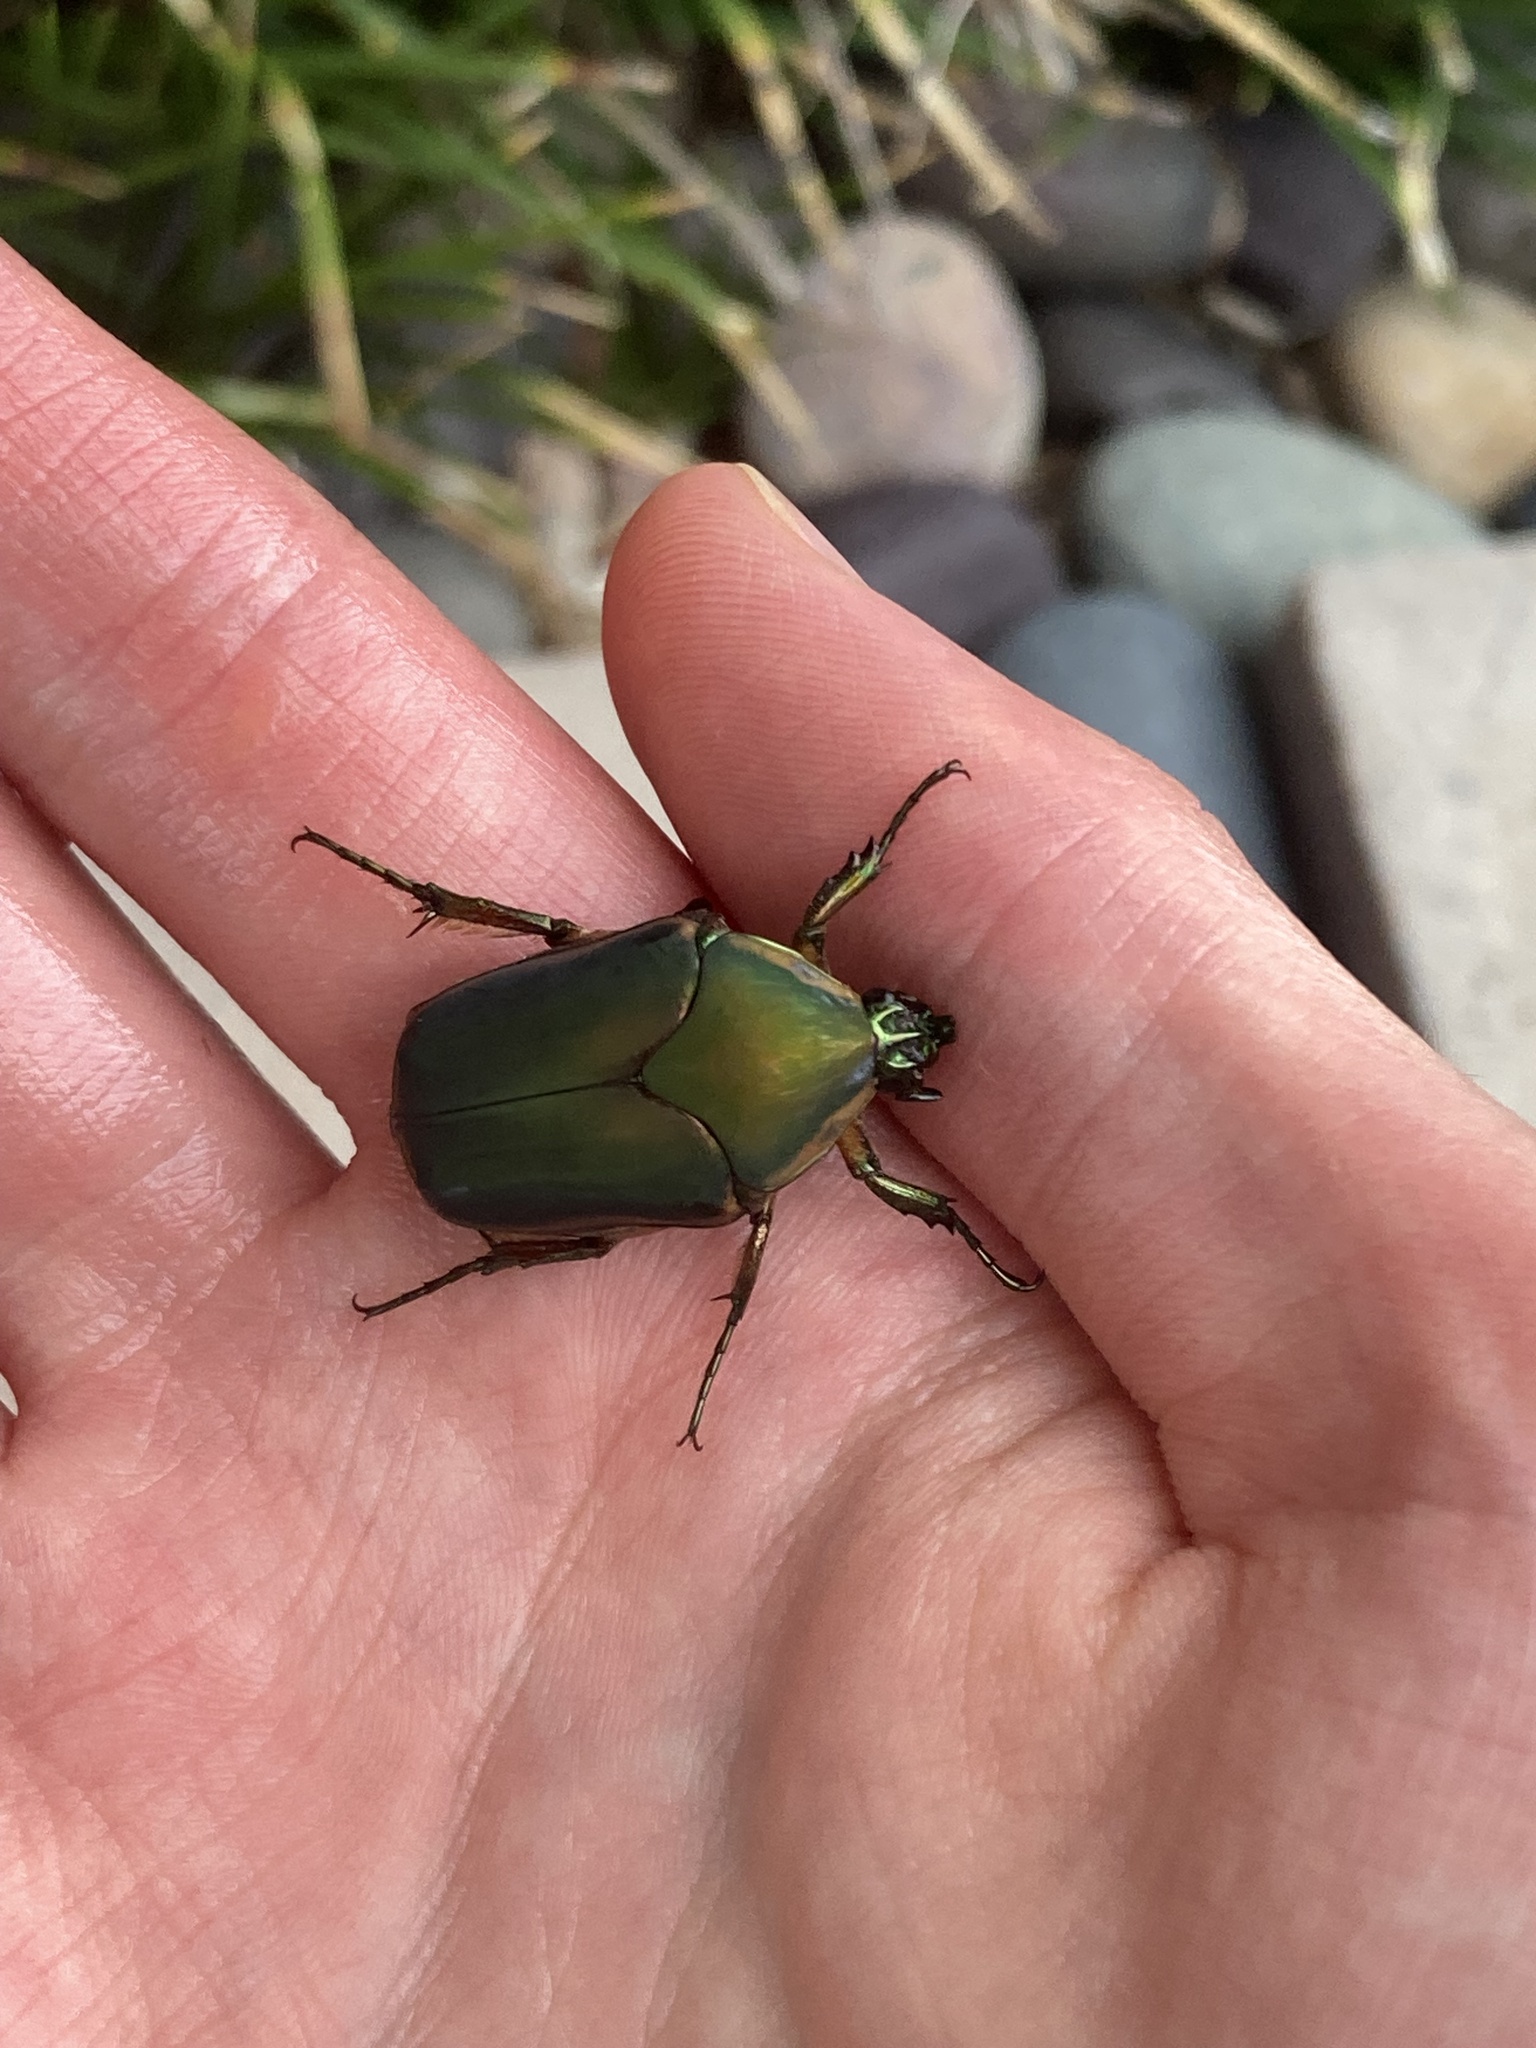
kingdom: Animalia
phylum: Arthropoda
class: Insecta
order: Coleoptera
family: Scarabaeidae
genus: Cotinis
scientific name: Cotinis nitida
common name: Common green june beetle
